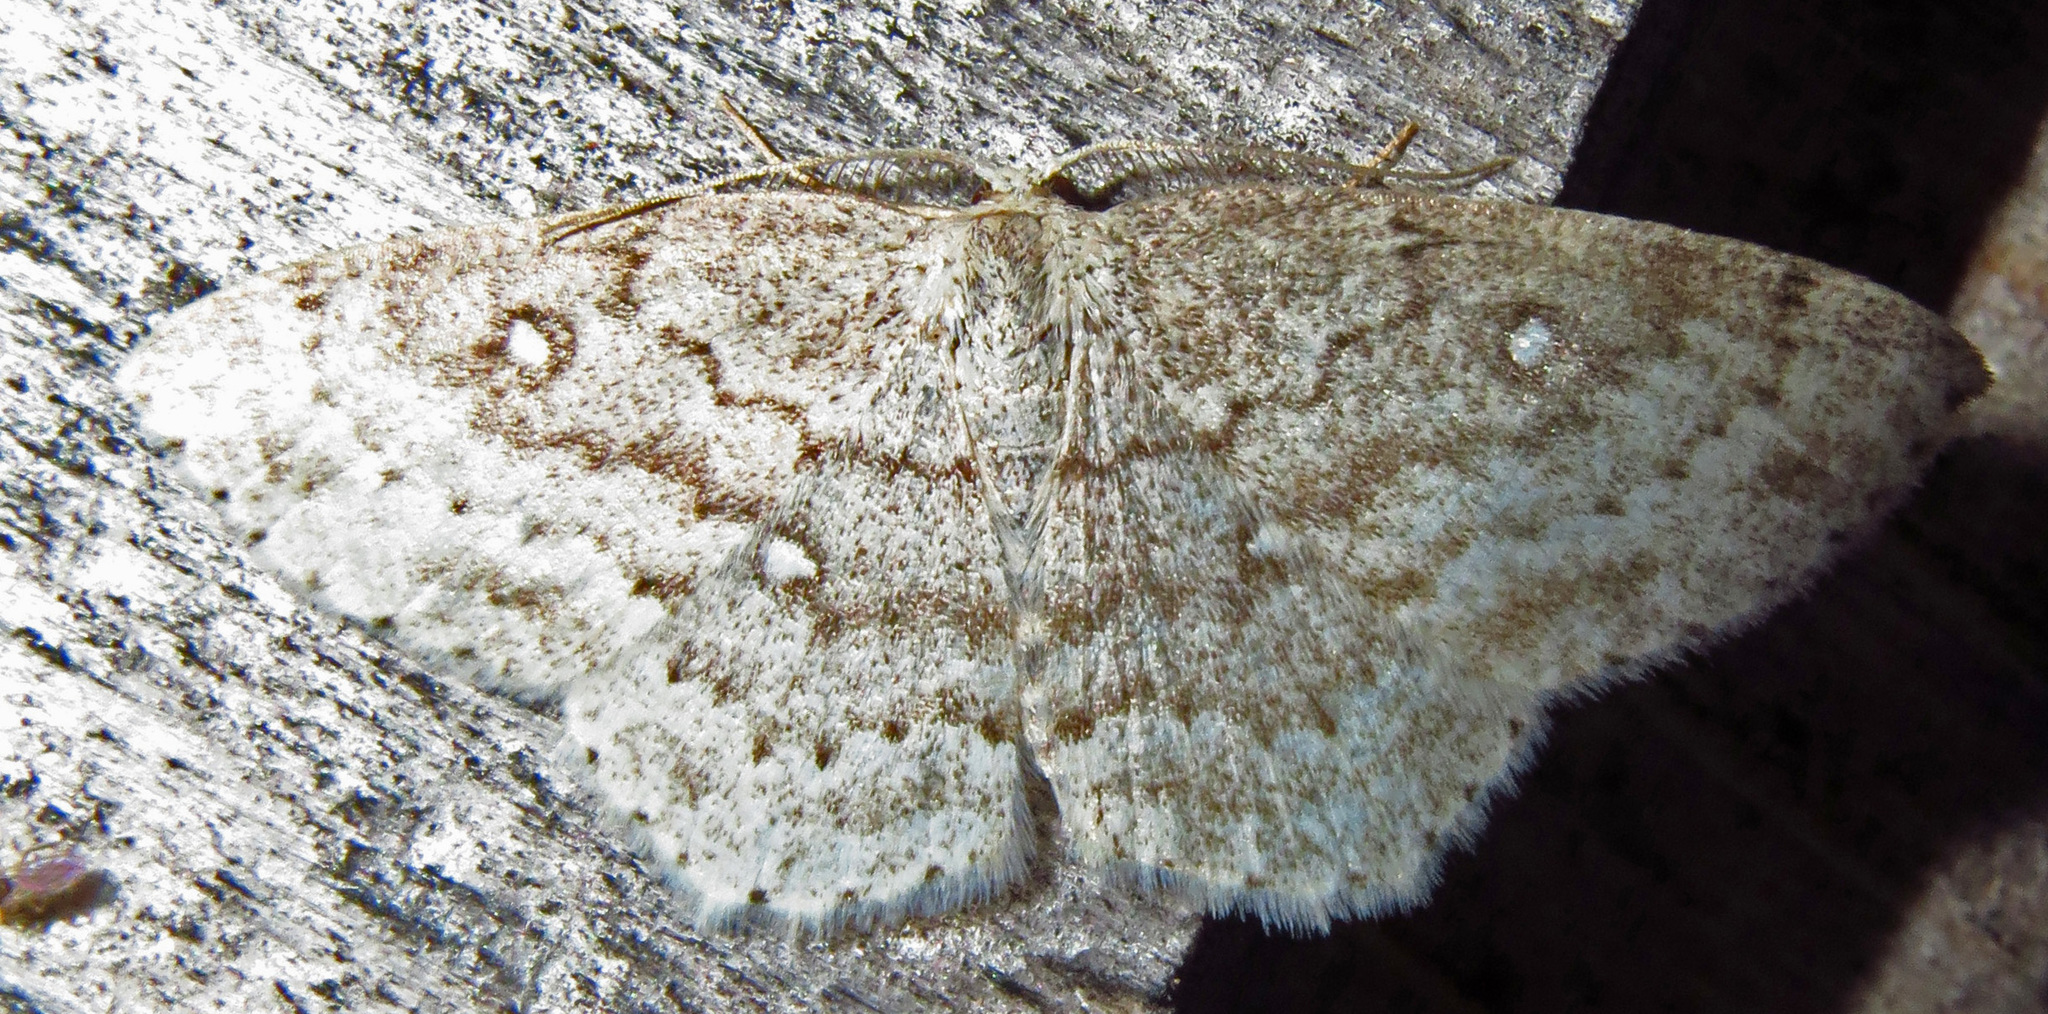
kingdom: Animalia
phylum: Arthropoda
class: Insecta
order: Lepidoptera
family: Geometridae
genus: Cyclophora
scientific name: Cyclophora pendulinaria
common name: Sweet fern geometer
